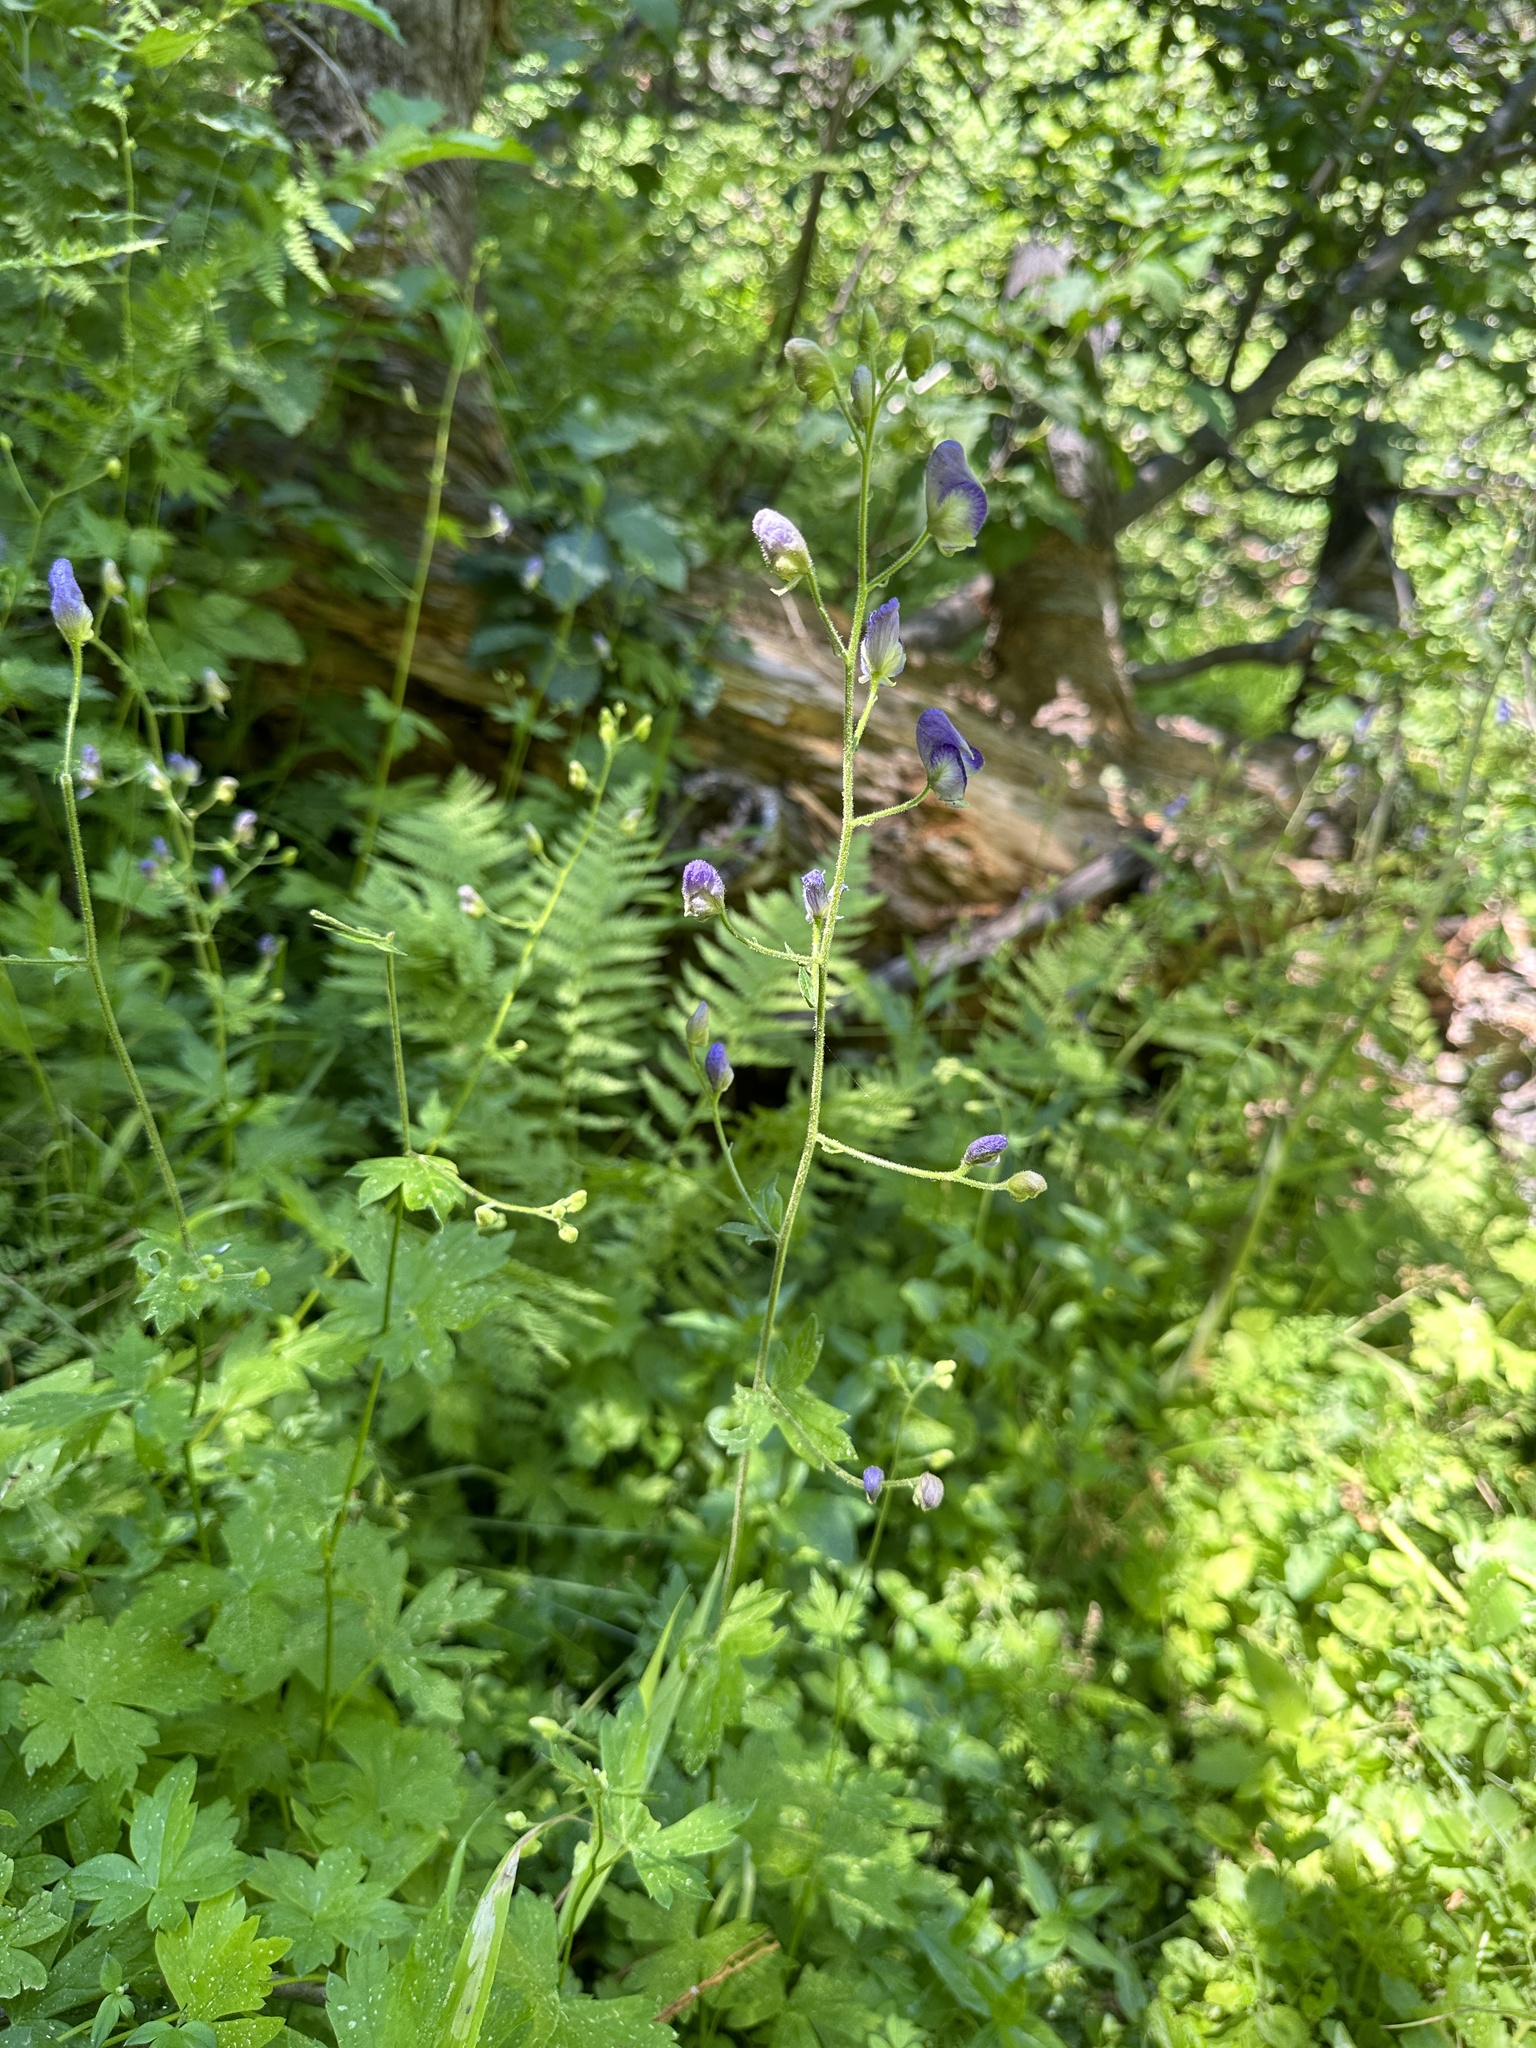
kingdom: Plantae
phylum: Tracheophyta
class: Magnoliopsida
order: Ranunculales
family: Ranunculaceae
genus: Aconitum
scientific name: Aconitum columbianum
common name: Columbia aconite
